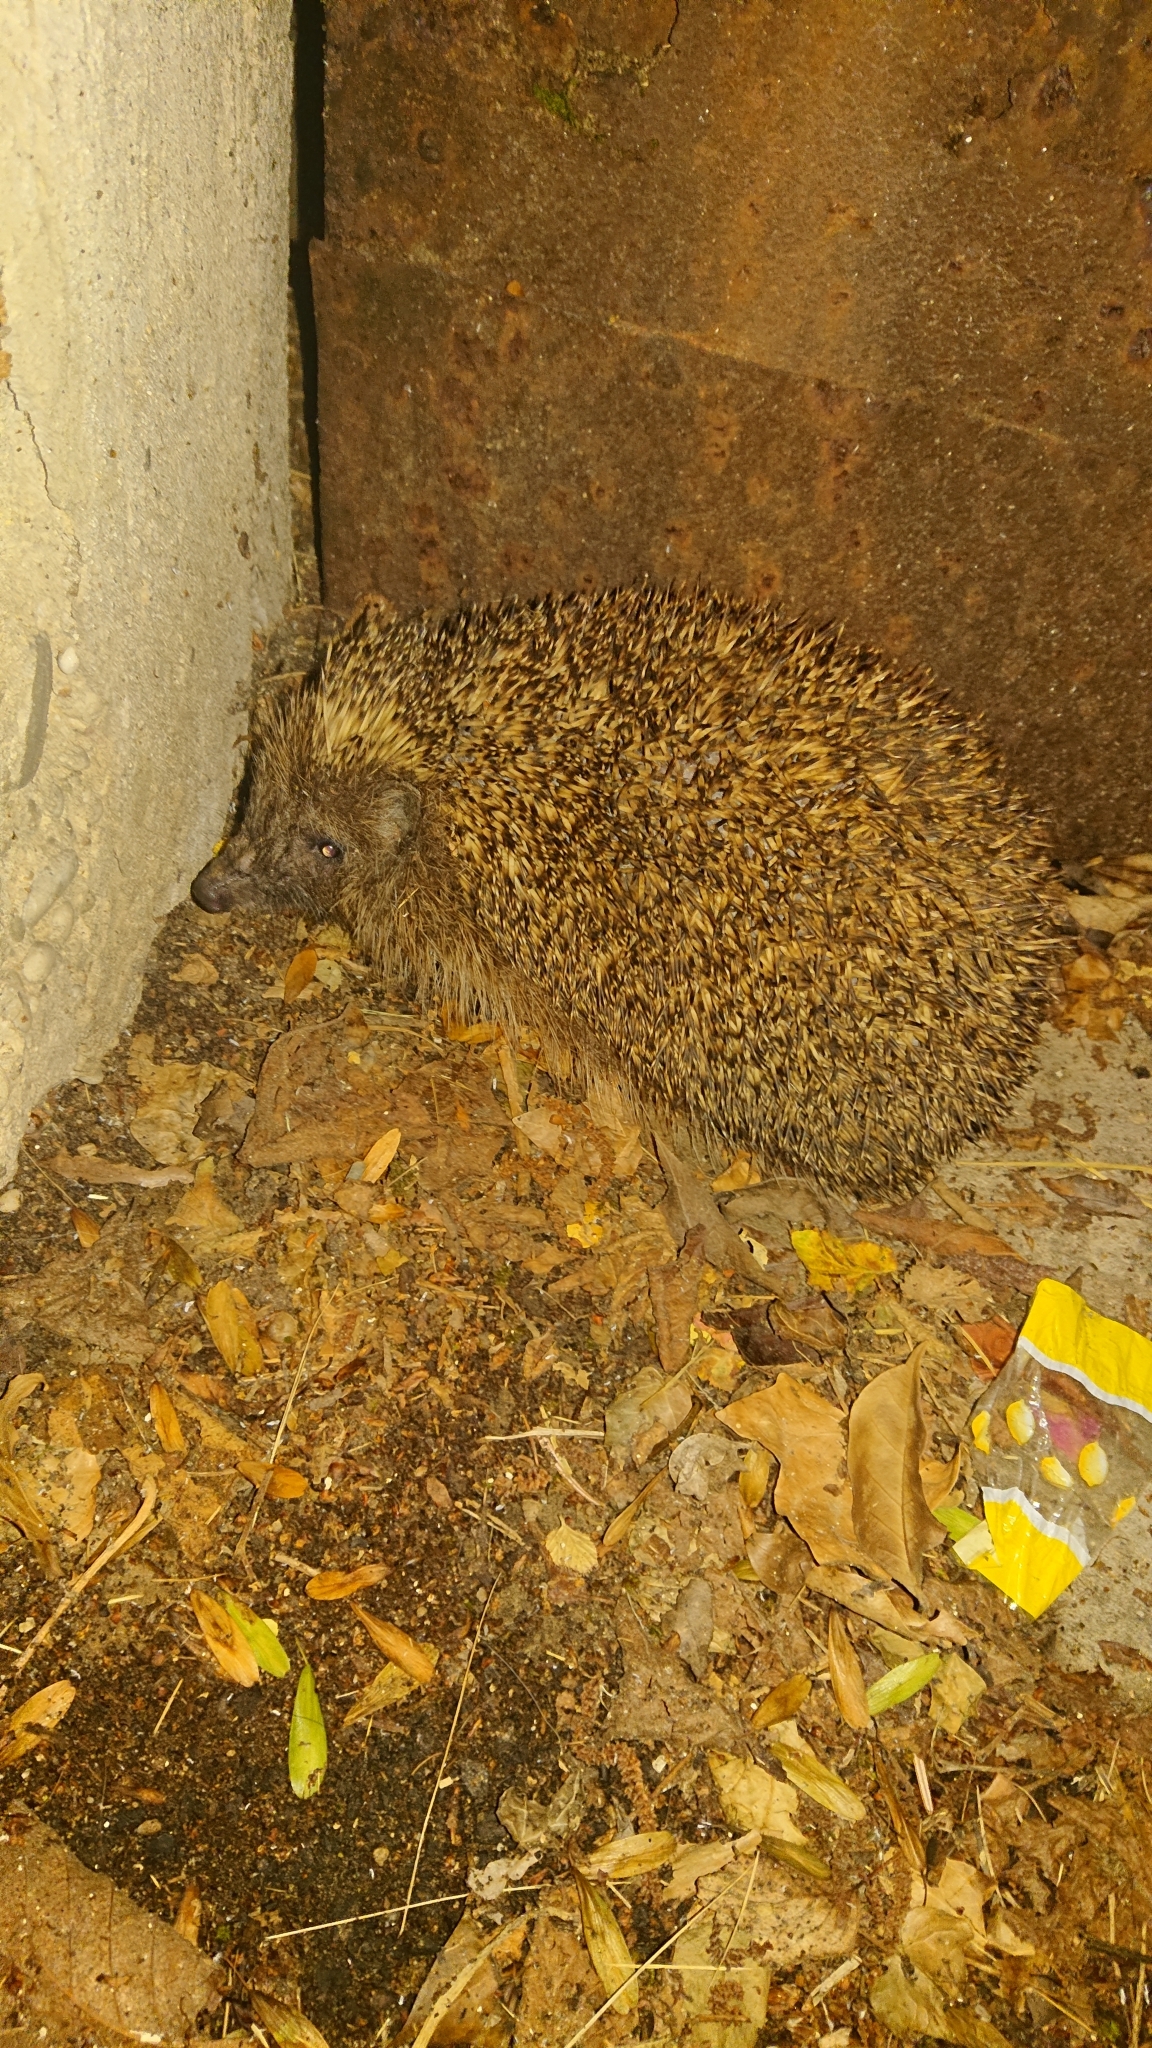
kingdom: Animalia
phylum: Chordata
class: Mammalia
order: Erinaceomorpha
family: Erinaceidae
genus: Erinaceus
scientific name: Erinaceus roumanicus
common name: Northern white-breasted hedgehog
